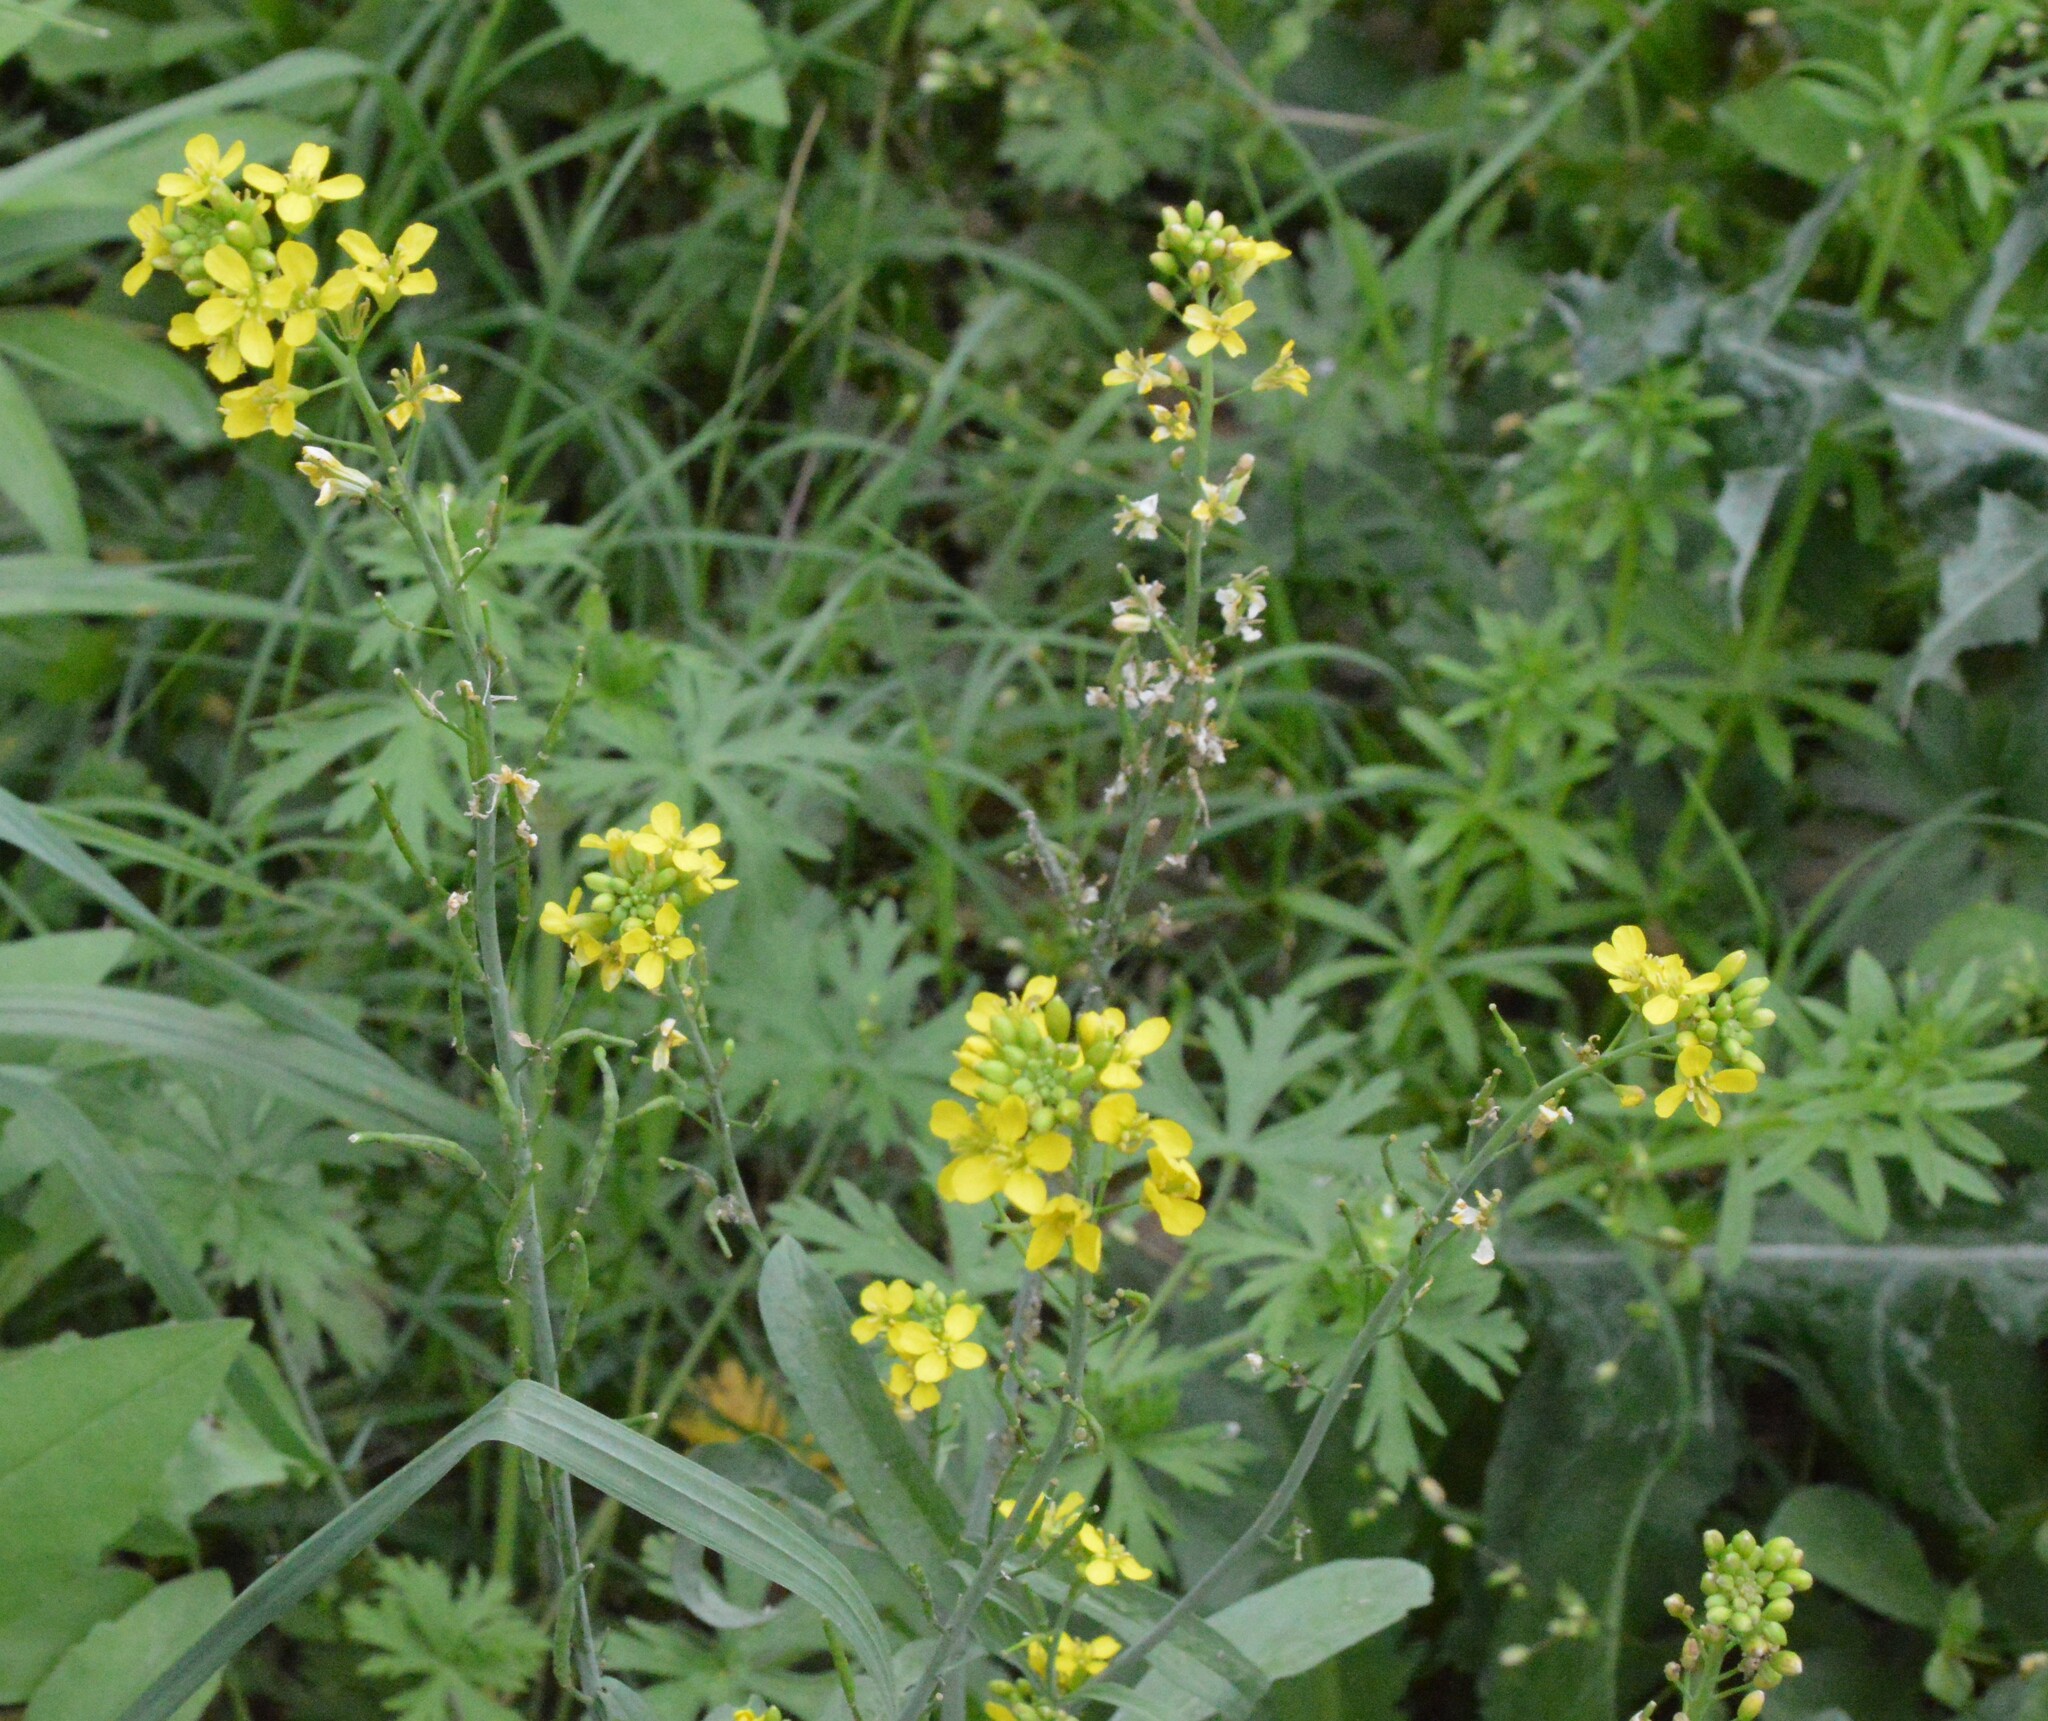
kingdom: Plantae
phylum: Tracheophyta
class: Magnoliopsida
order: Brassicales
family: Brassicaceae
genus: Rapistrum
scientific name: Rapistrum rugosum
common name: Annual bastardcabbage
